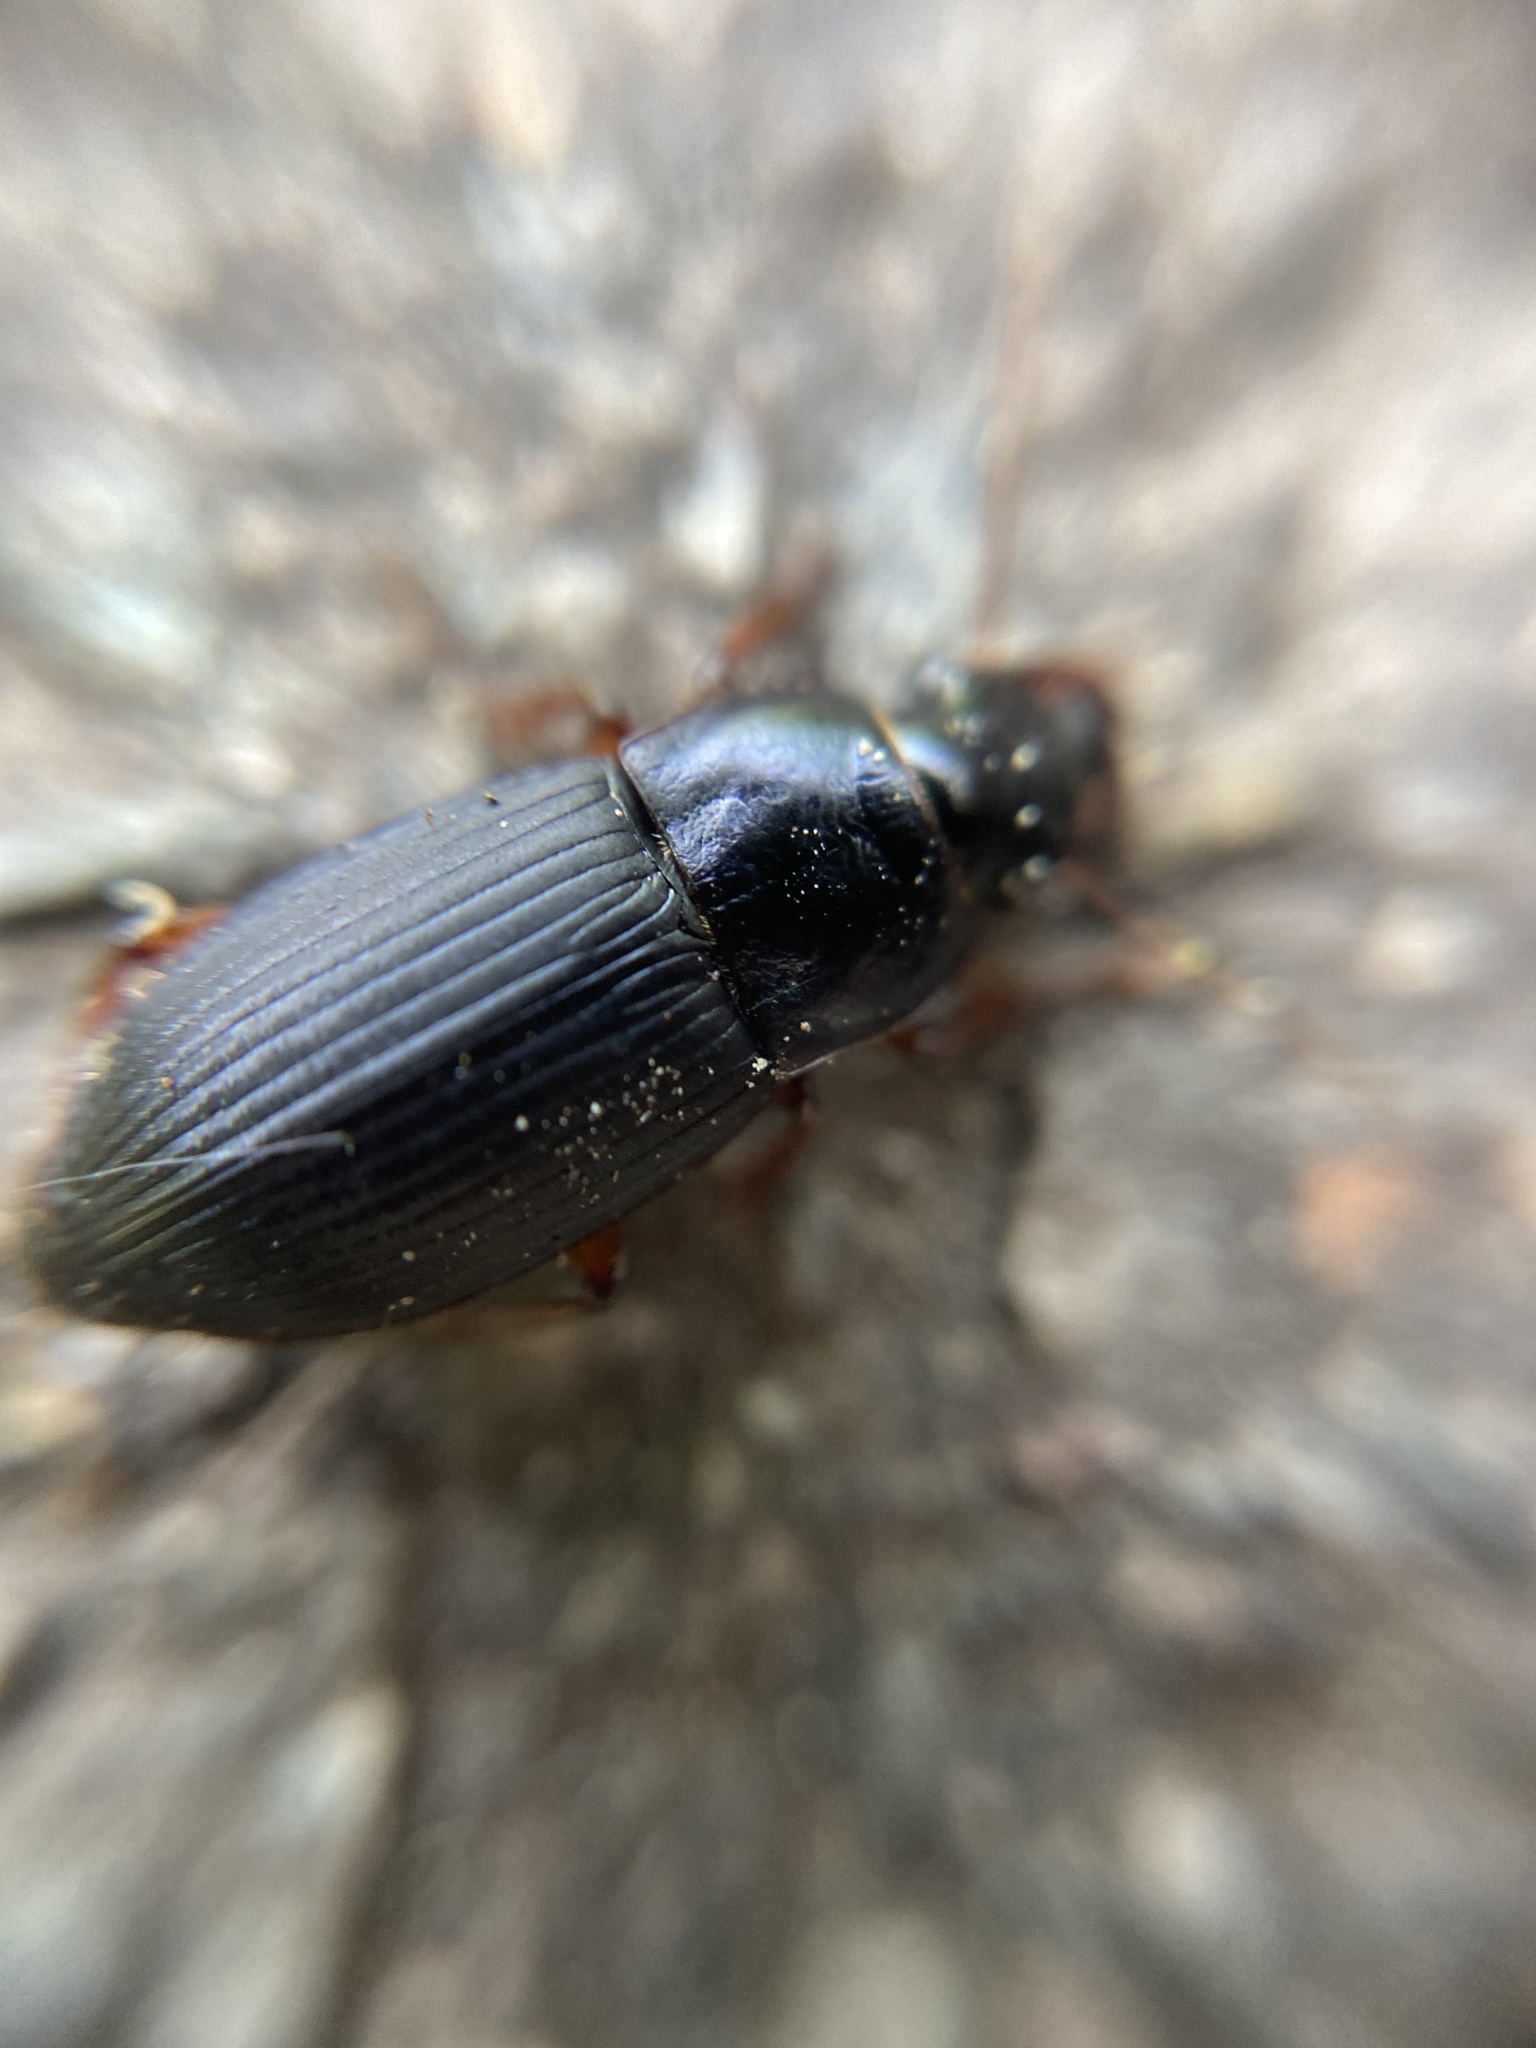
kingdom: Animalia
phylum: Arthropoda
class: Insecta
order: Coleoptera
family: Carabidae
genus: Harpalus
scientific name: Harpalus rubripes
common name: Red-legged harp ground beetle
